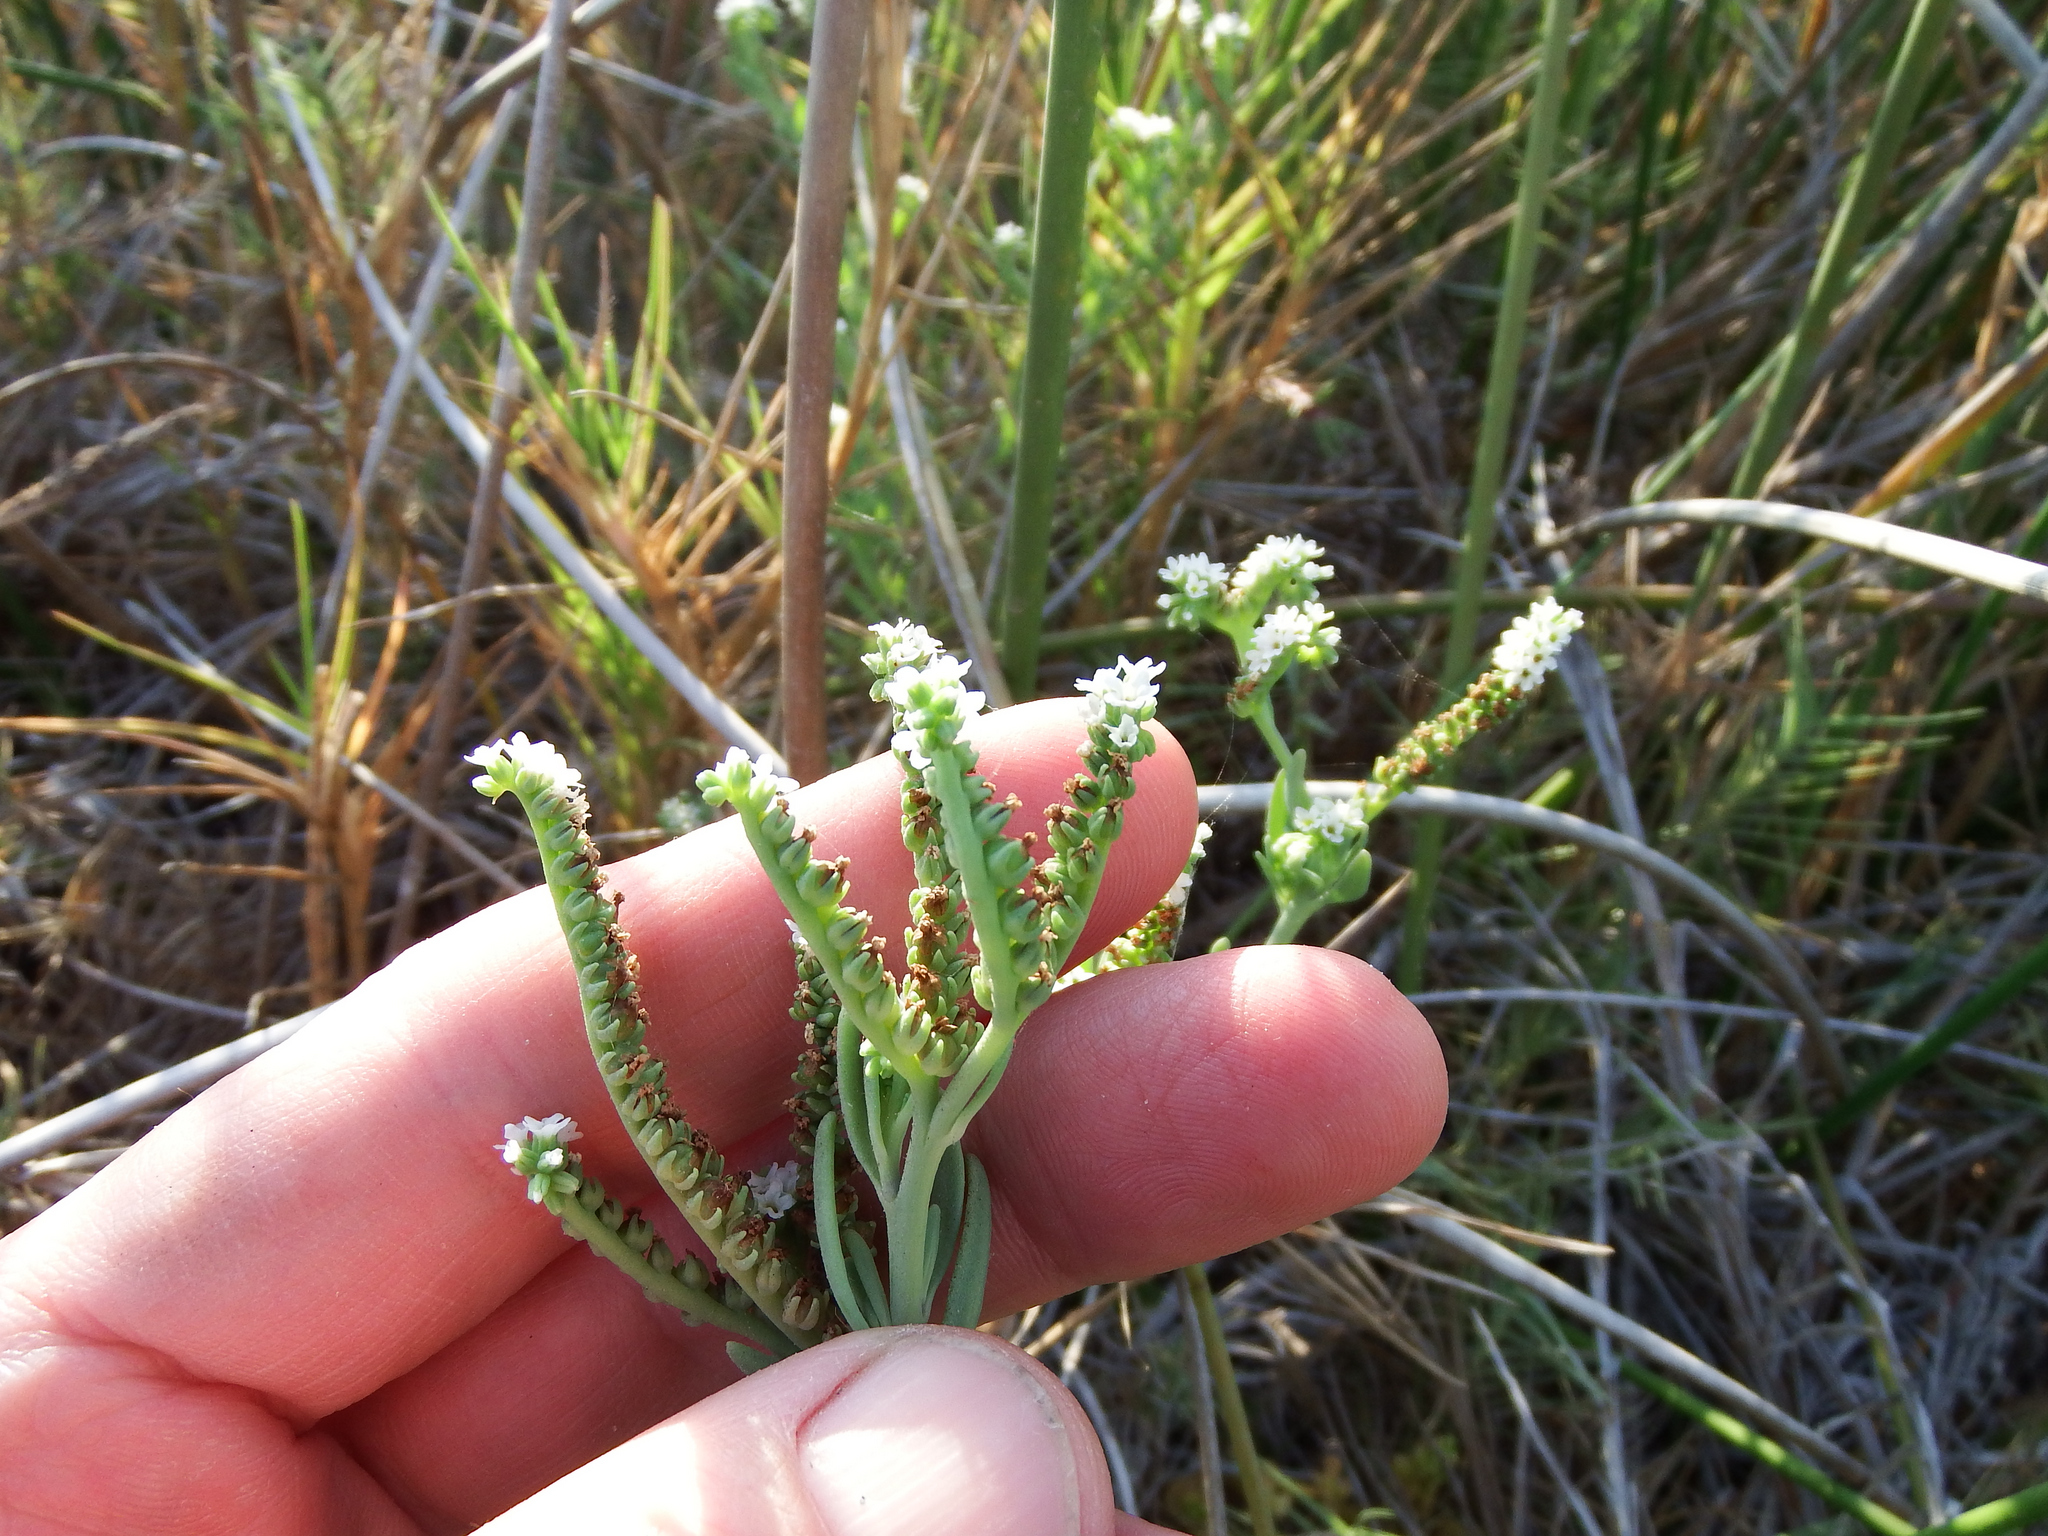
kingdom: Plantae
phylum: Tracheophyta
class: Magnoliopsida
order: Boraginales
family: Heliotropiaceae
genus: Heliotropium
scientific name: Heliotropium curassavicum
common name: Seaside heliotrope
